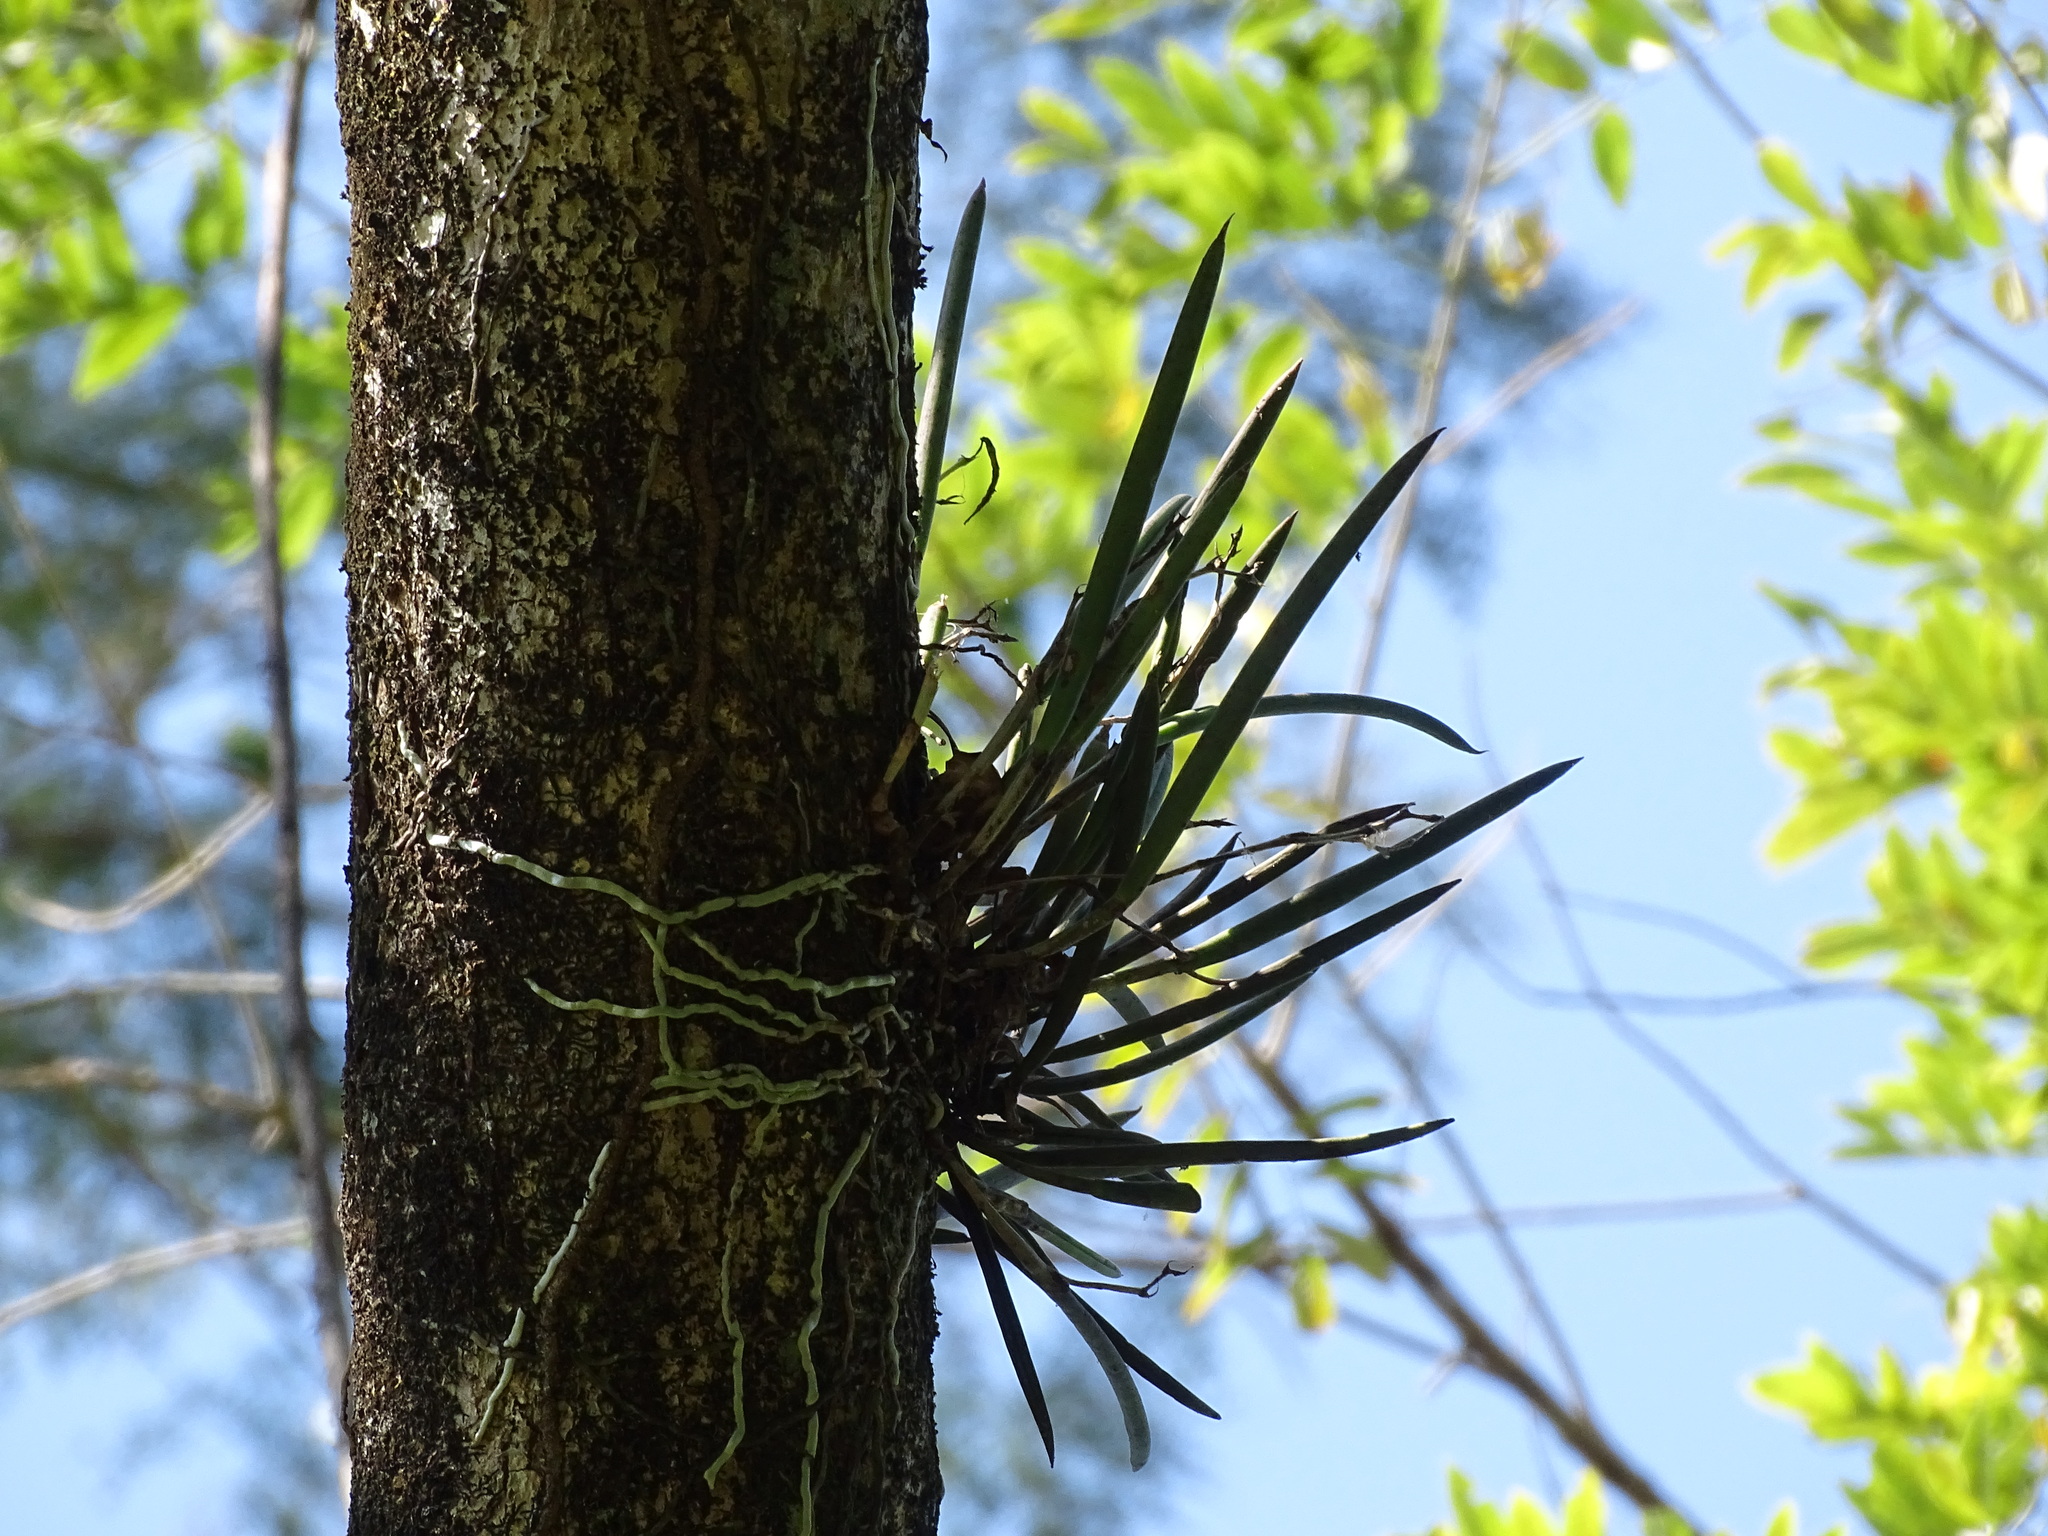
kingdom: Plantae
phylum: Tracheophyta
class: Liliopsida
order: Asparagales
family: Orchidaceae
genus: Brassavola
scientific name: Brassavola nodosa
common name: Lady of the night
